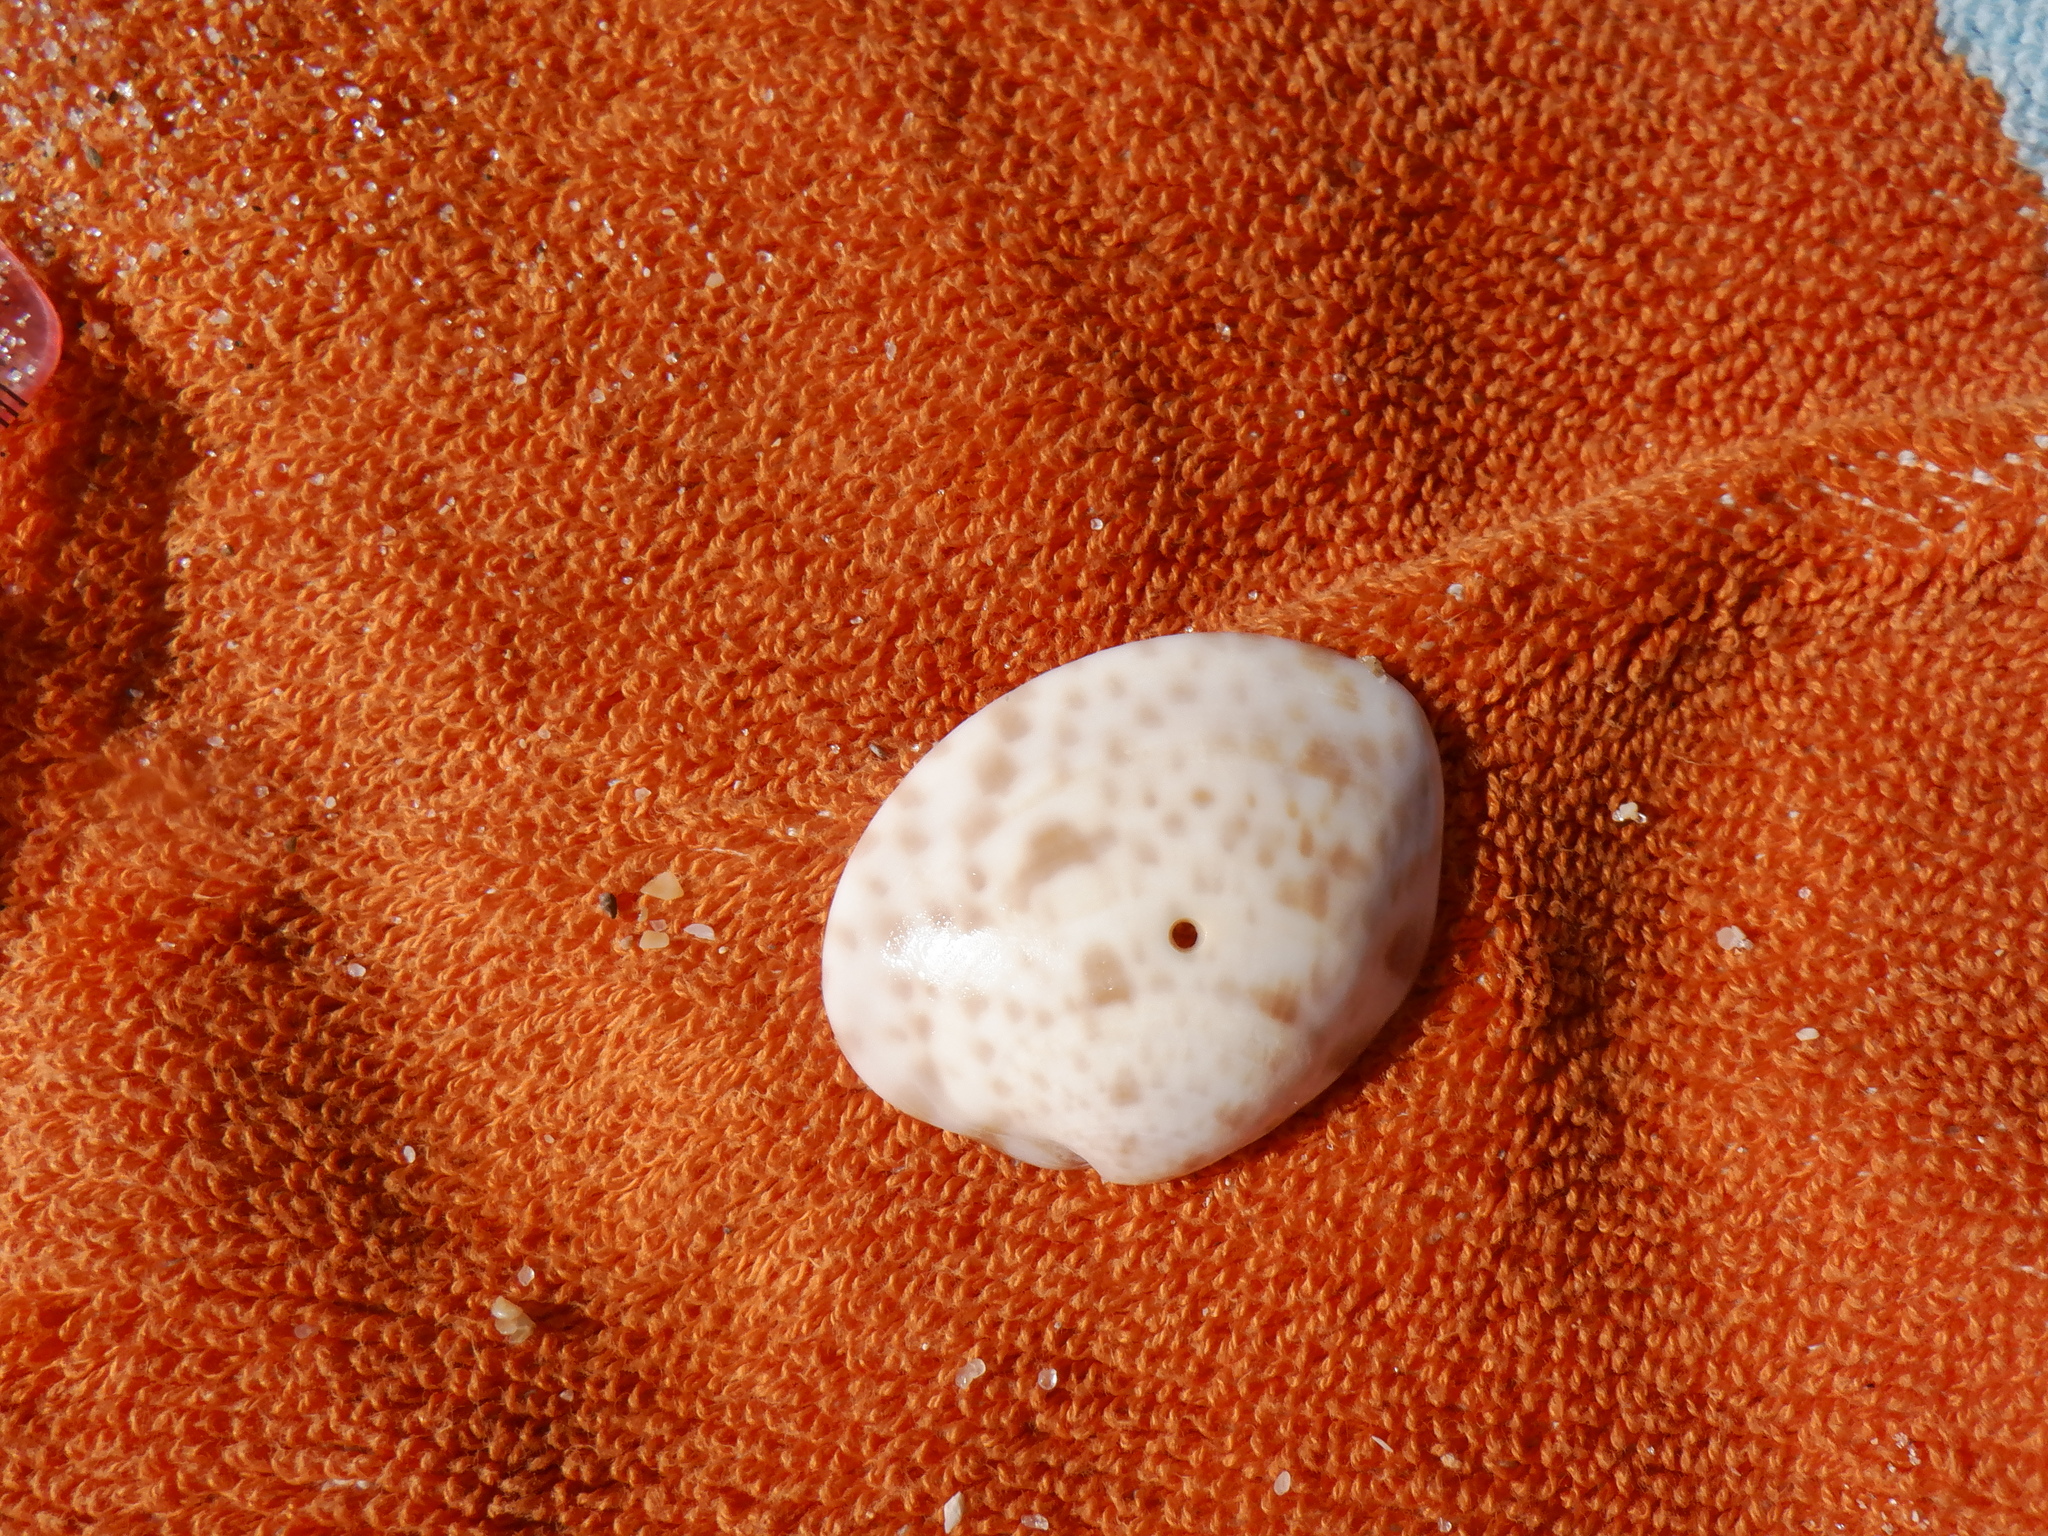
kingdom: Animalia
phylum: Mollusca
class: Bivalvia
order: Venerida
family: Veneridae
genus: Megapitaria
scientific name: Megapitaria maculata
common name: Calico clam
